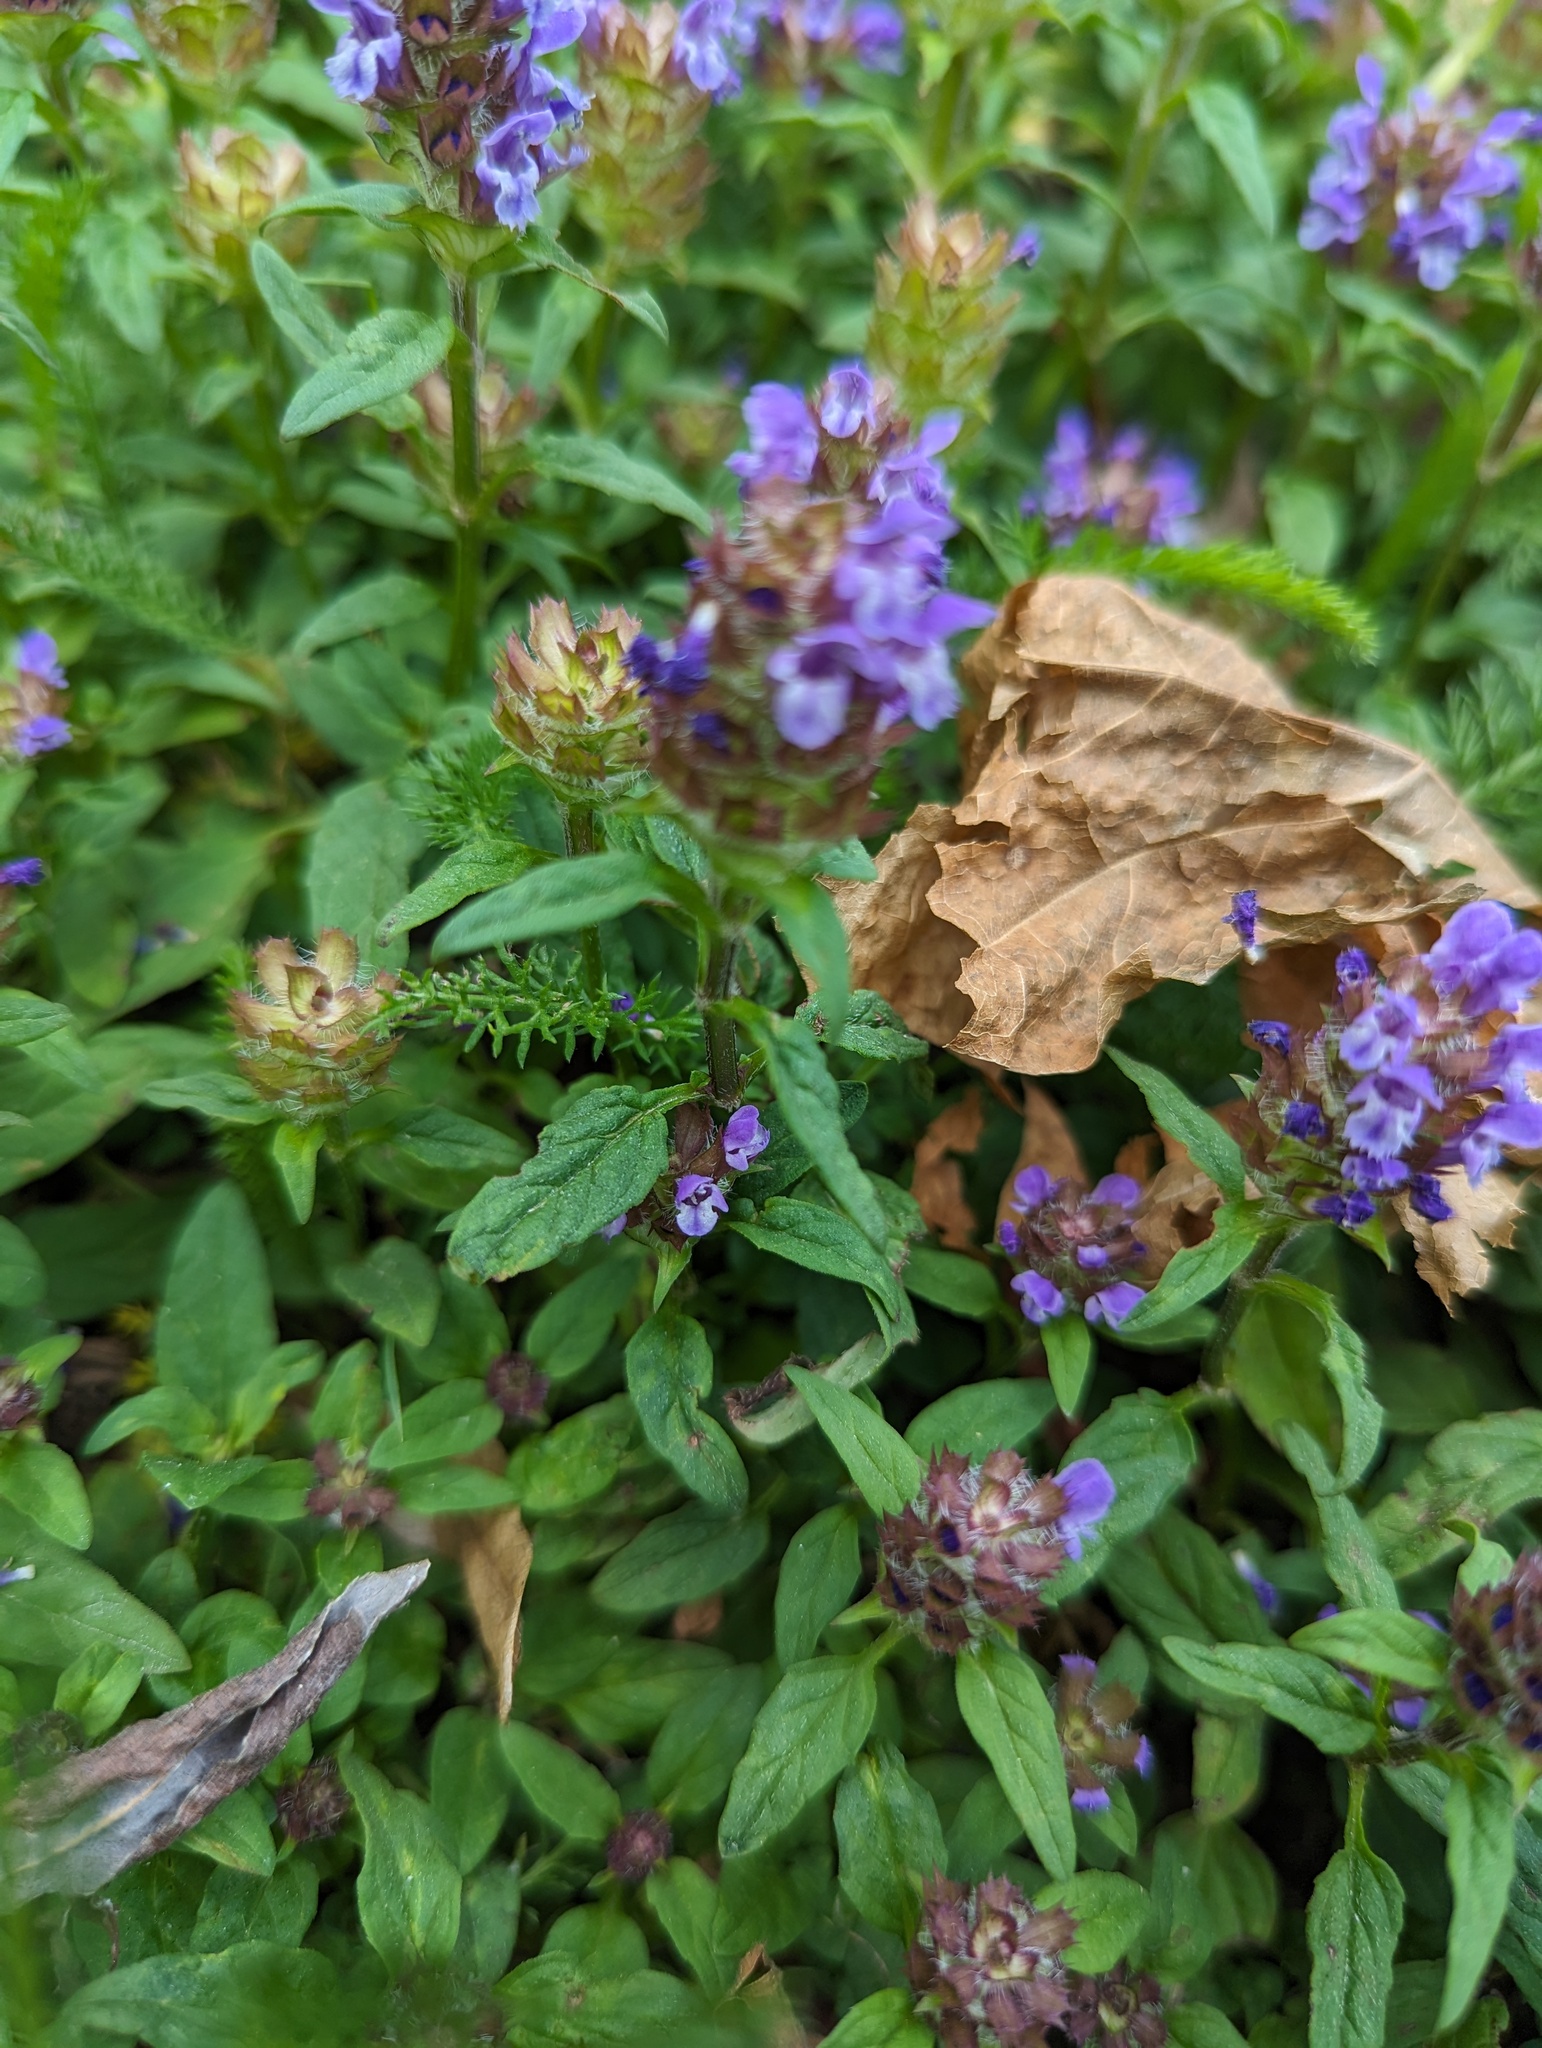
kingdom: Plantae
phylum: Tracheophyta
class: Magnoliopsida
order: Lamiales
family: Lamiaceae
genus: Prunella
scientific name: Prunella vulgaris
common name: Heal-all
